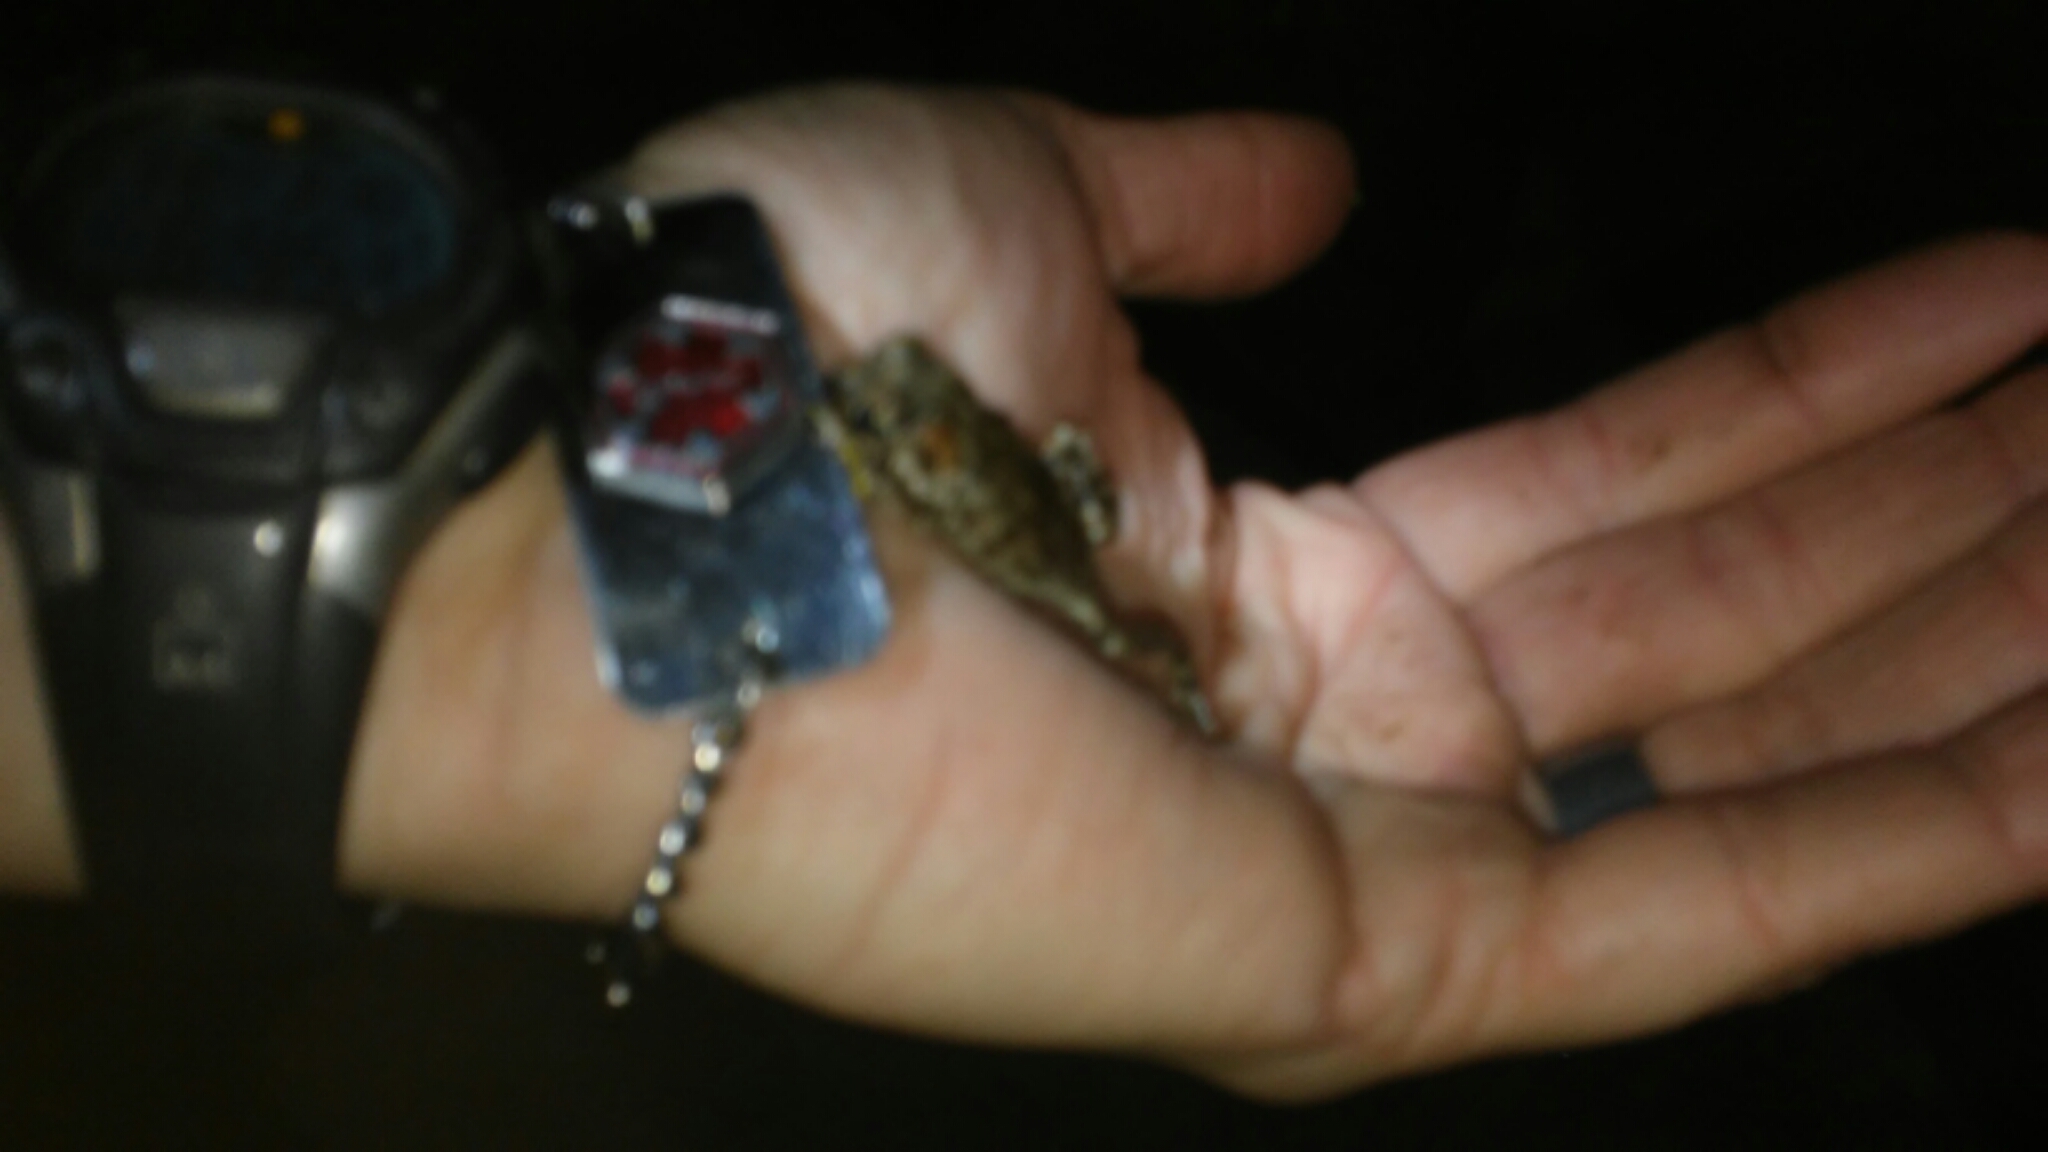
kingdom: Animalia
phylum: Chordata
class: Amphibia
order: Anura
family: Bufonidae
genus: Anaxyrus
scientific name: Anaxyrus boreas
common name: Western toad
